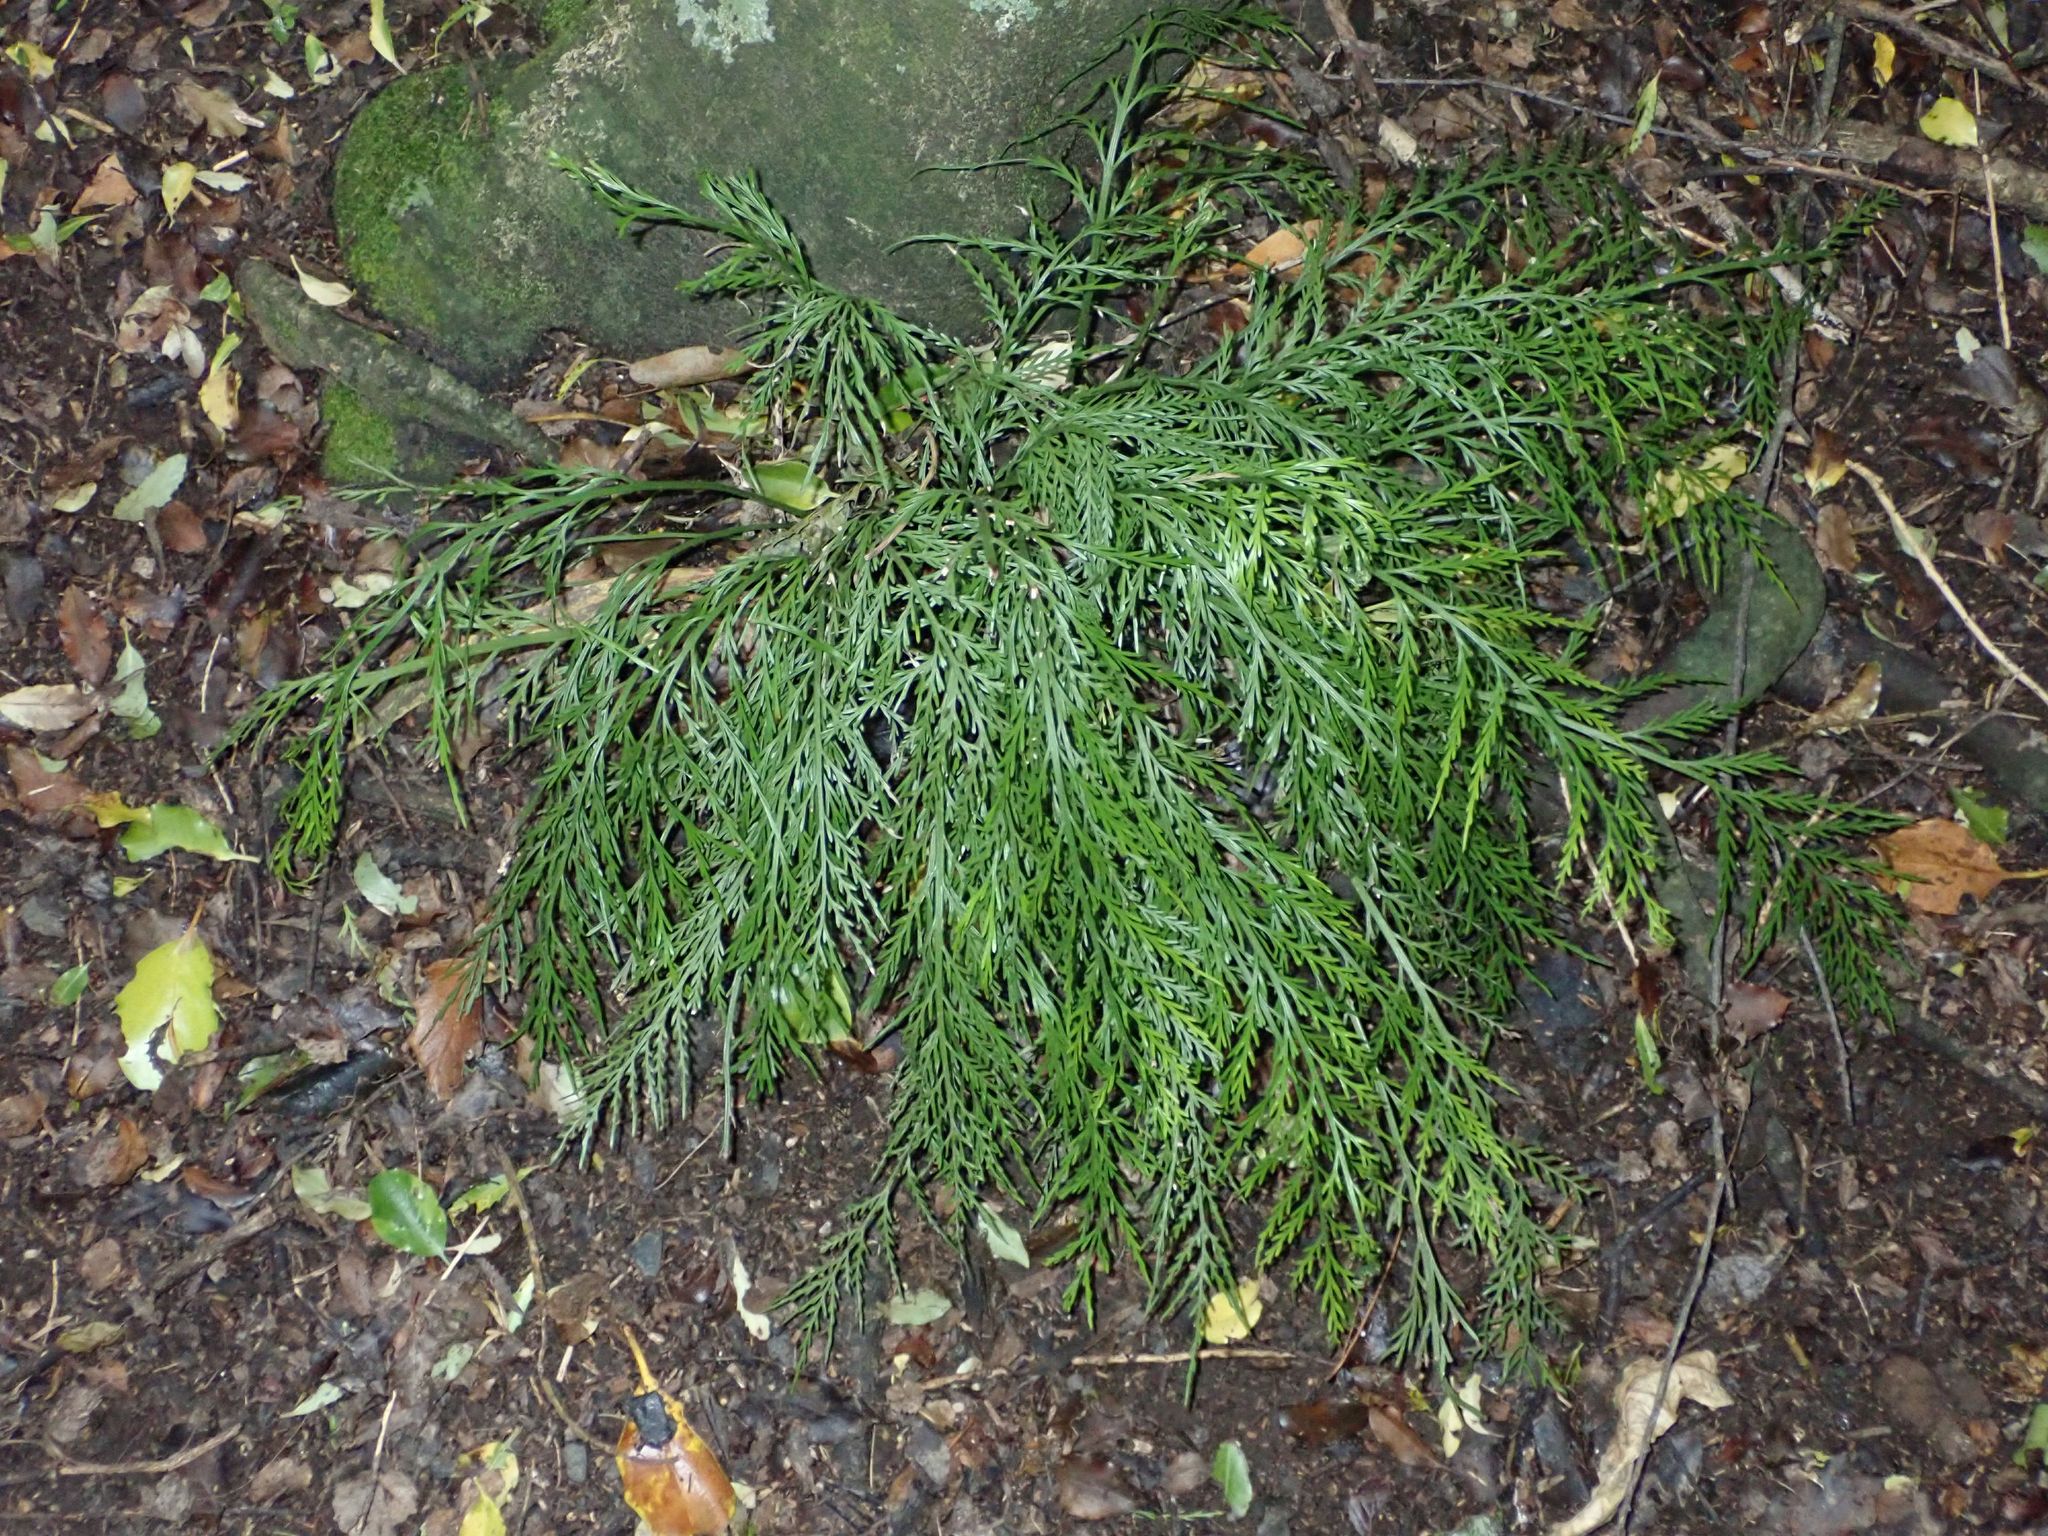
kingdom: Plantae
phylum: Tracheophyta
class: Polypodiopsida
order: Polypodiales
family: Aspleniaceae
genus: Asplenium
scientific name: Asplenium flaccidum
